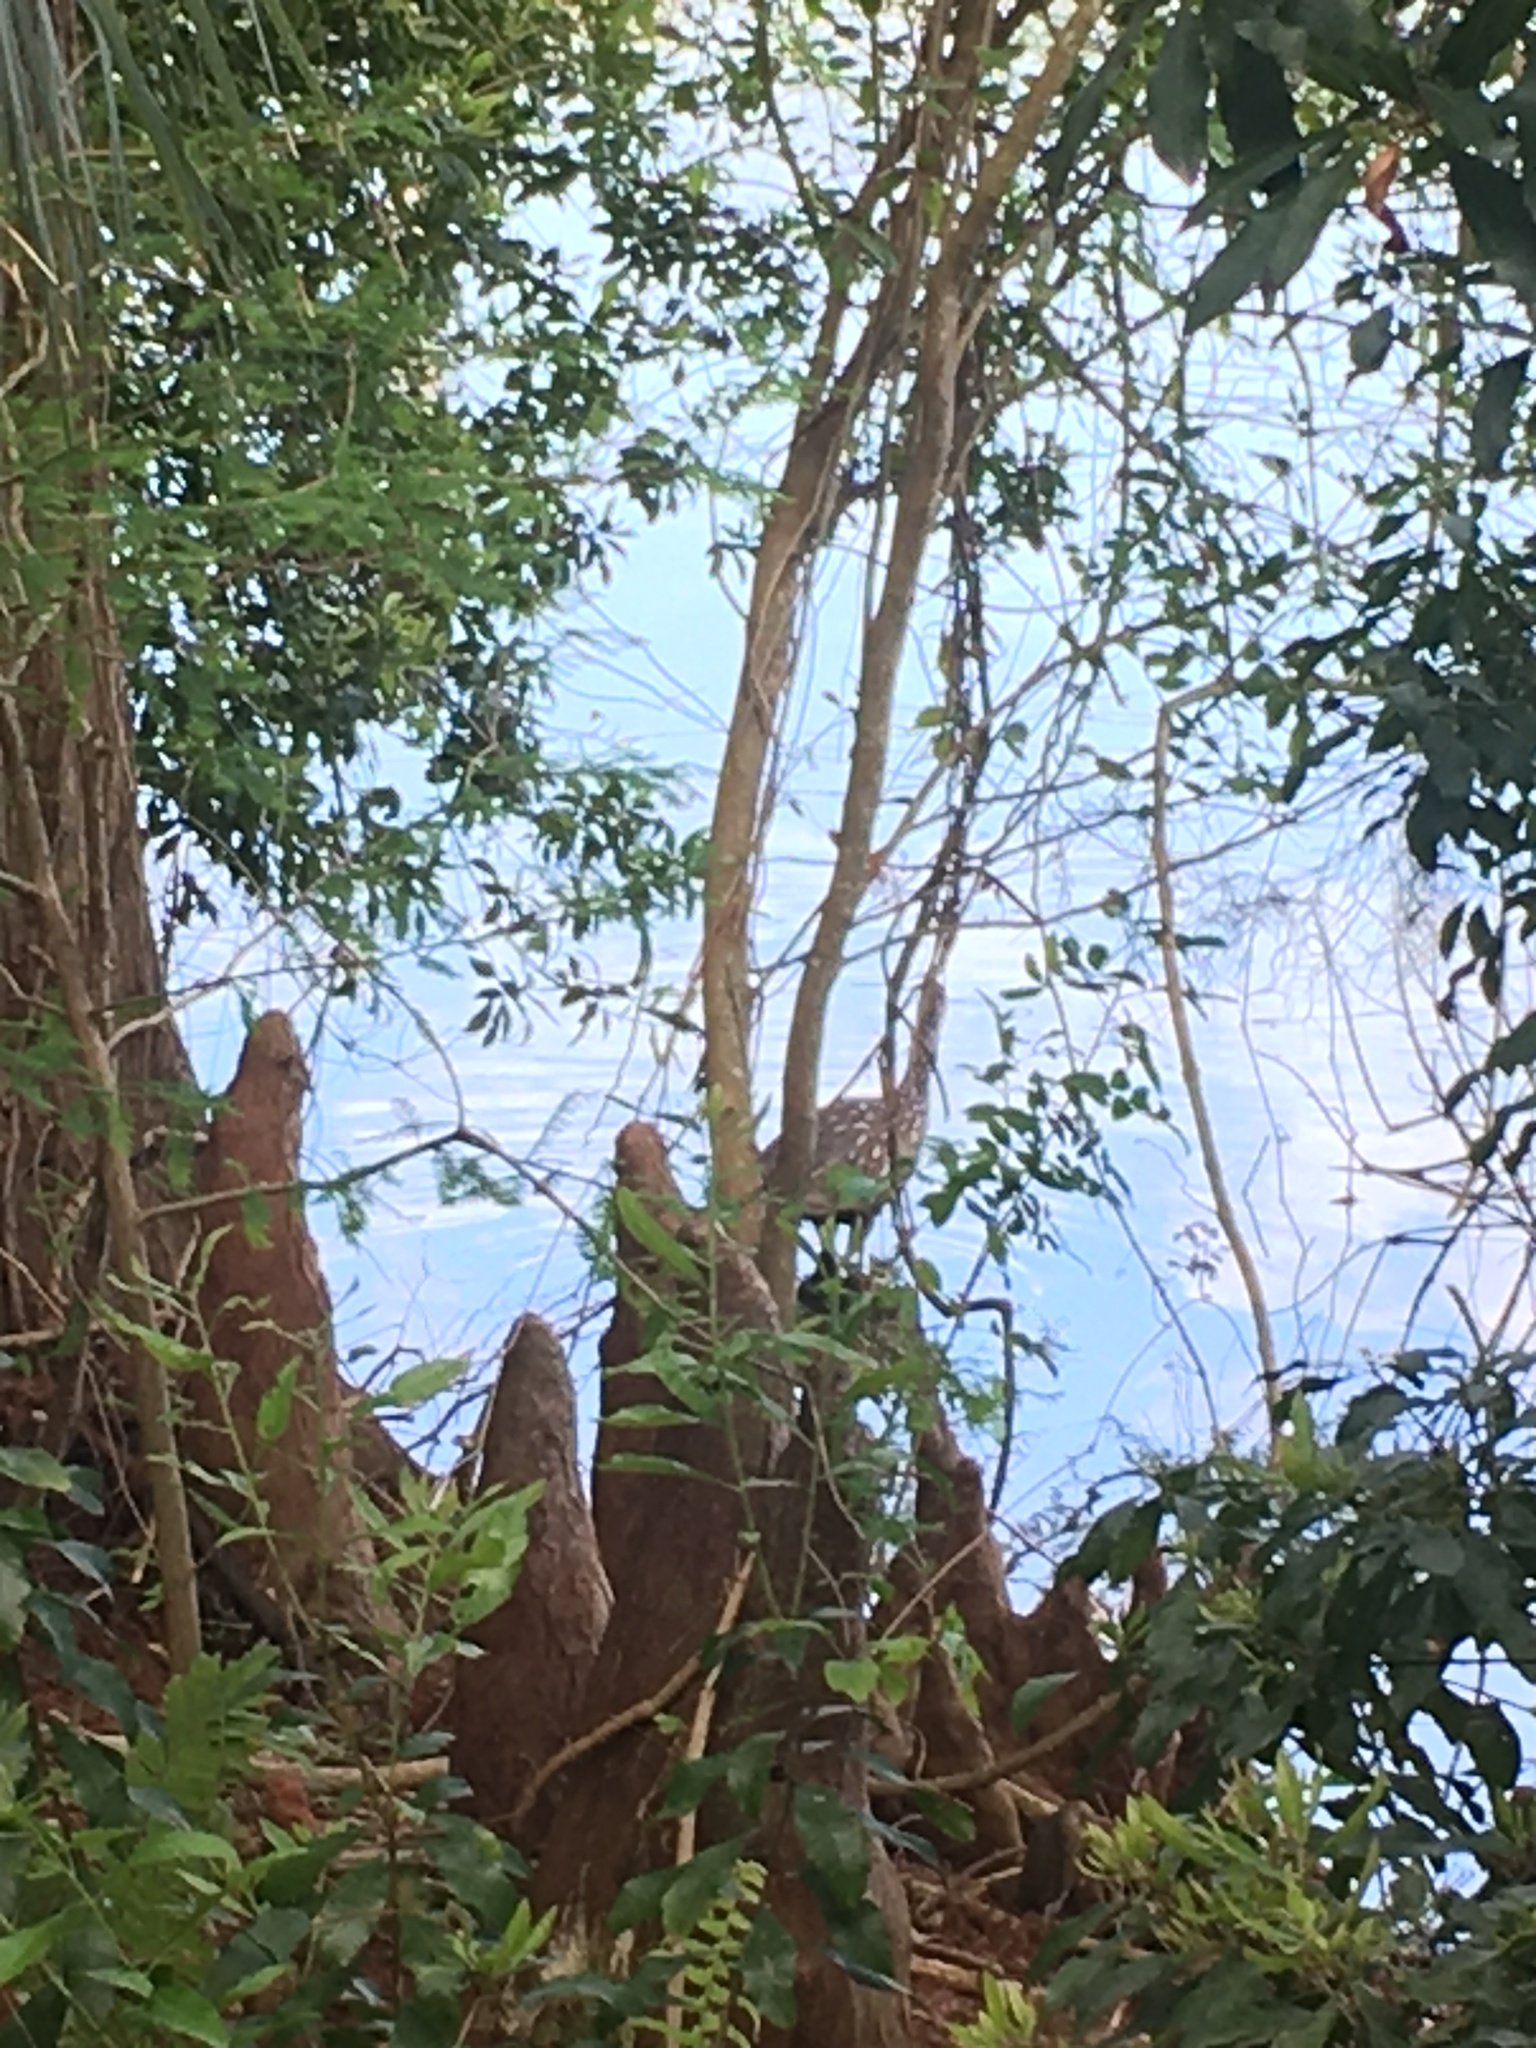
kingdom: Animalia
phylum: Chordata
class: Aves
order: Gruiformes
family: Aramidae
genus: Aramus
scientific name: Aramus guarauna
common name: Limpkin
